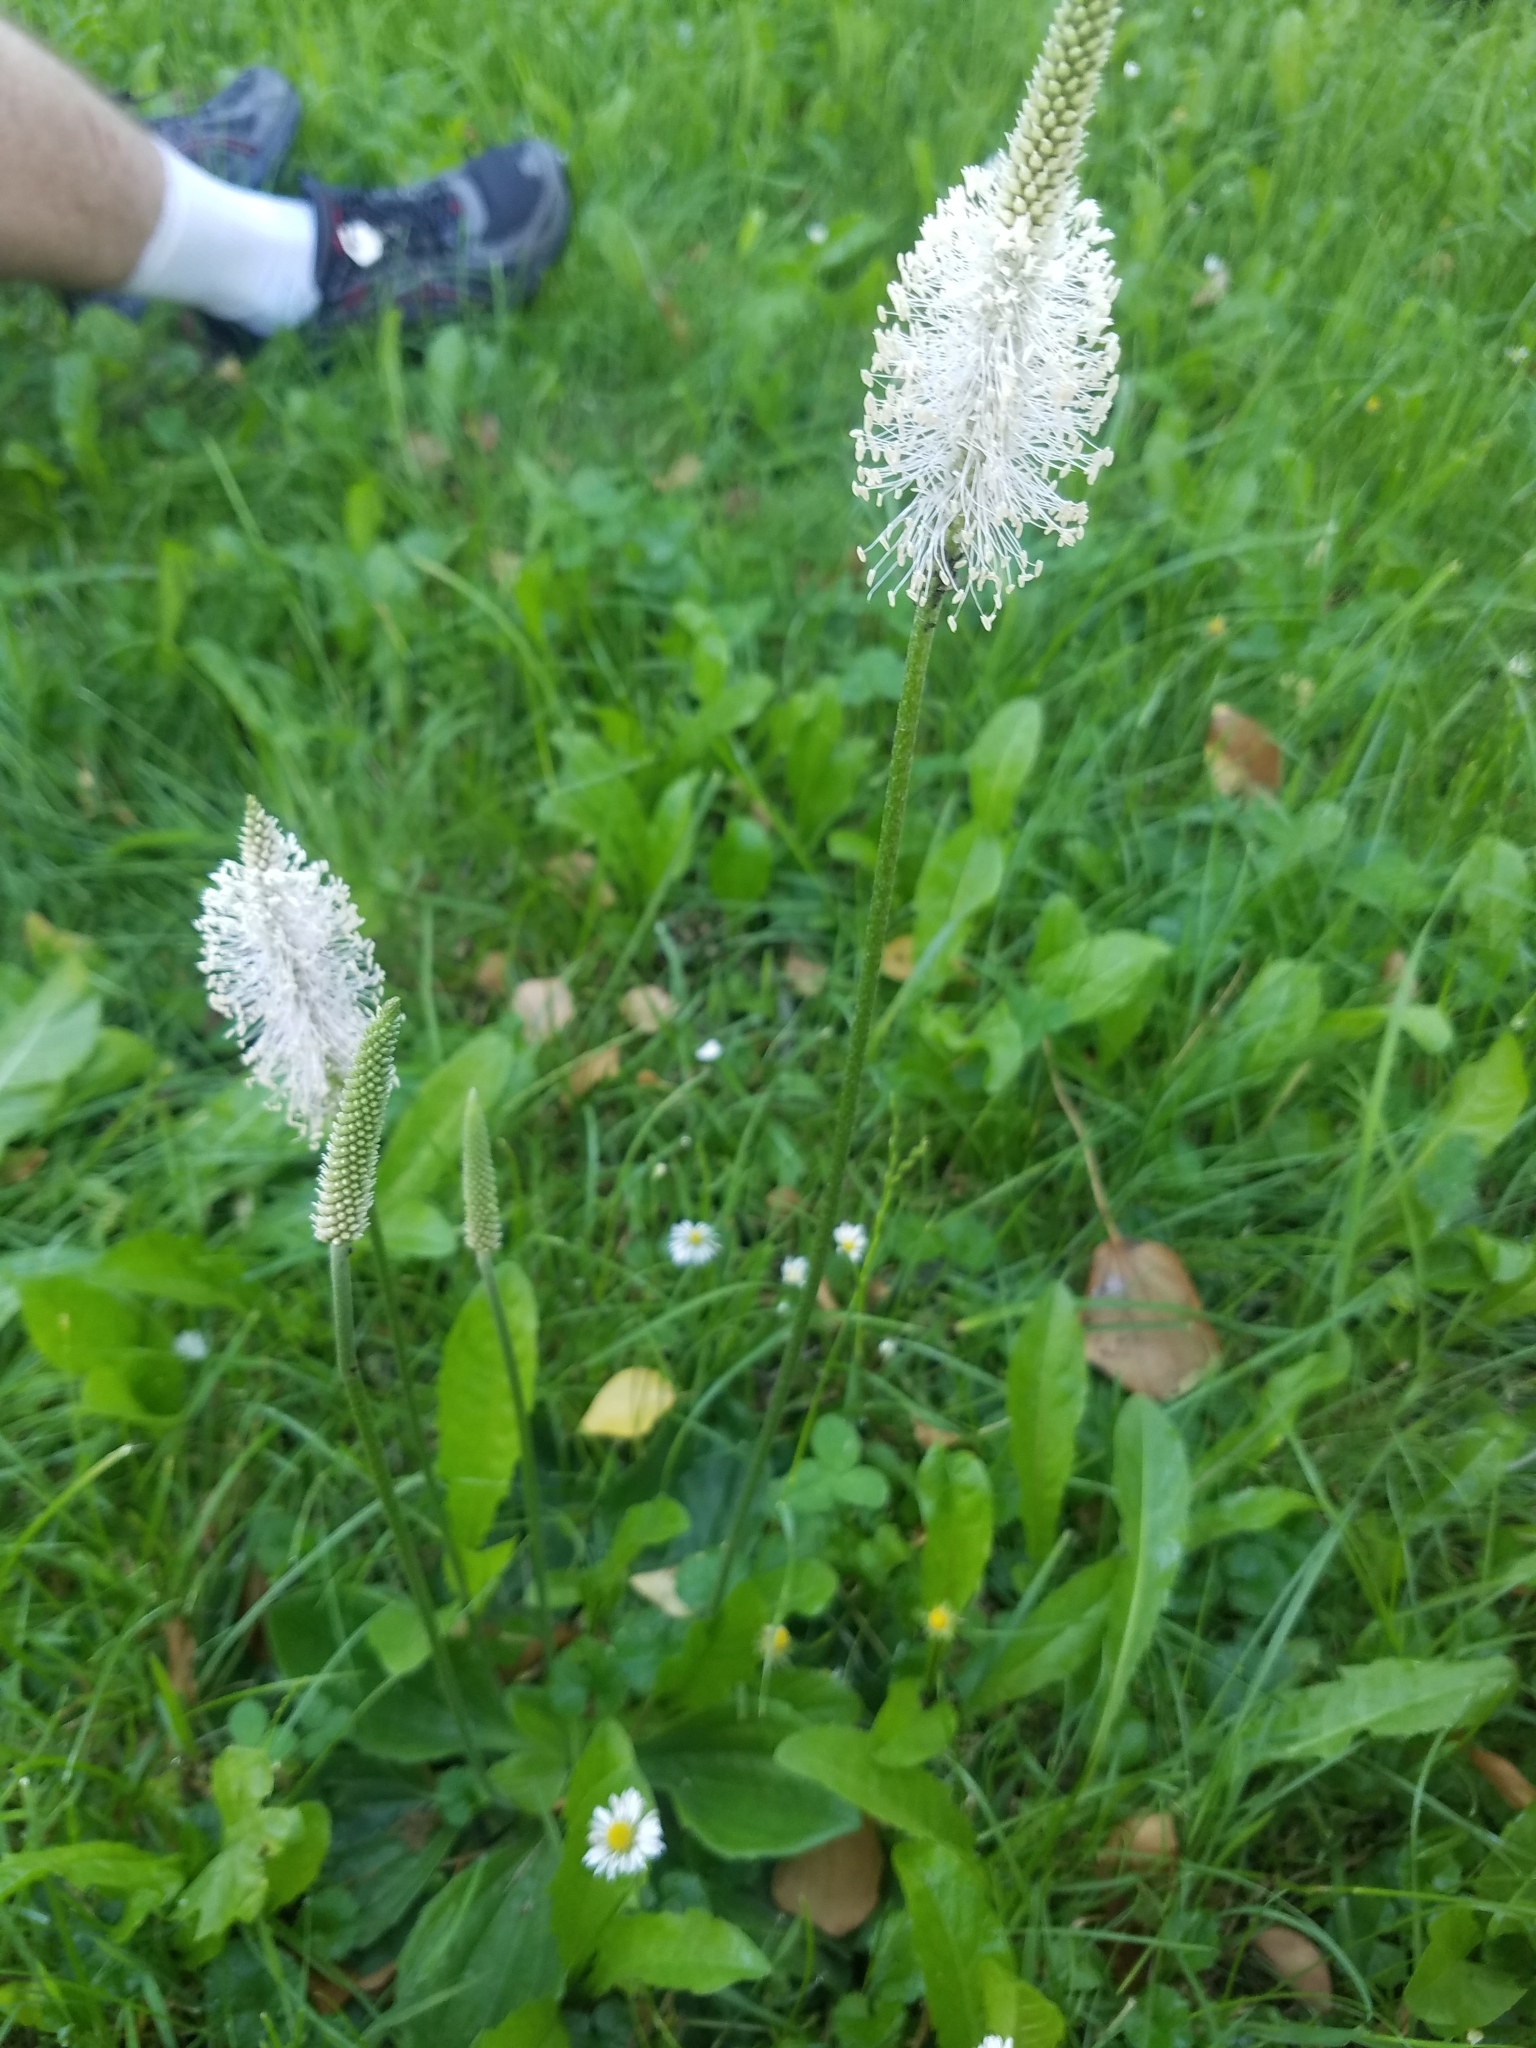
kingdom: Plantae
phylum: Tracheophyta
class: Magnoliopsida
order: Lamiales
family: Plantaginaceae
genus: Plantago
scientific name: Plantago media
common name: Hoary plantain
